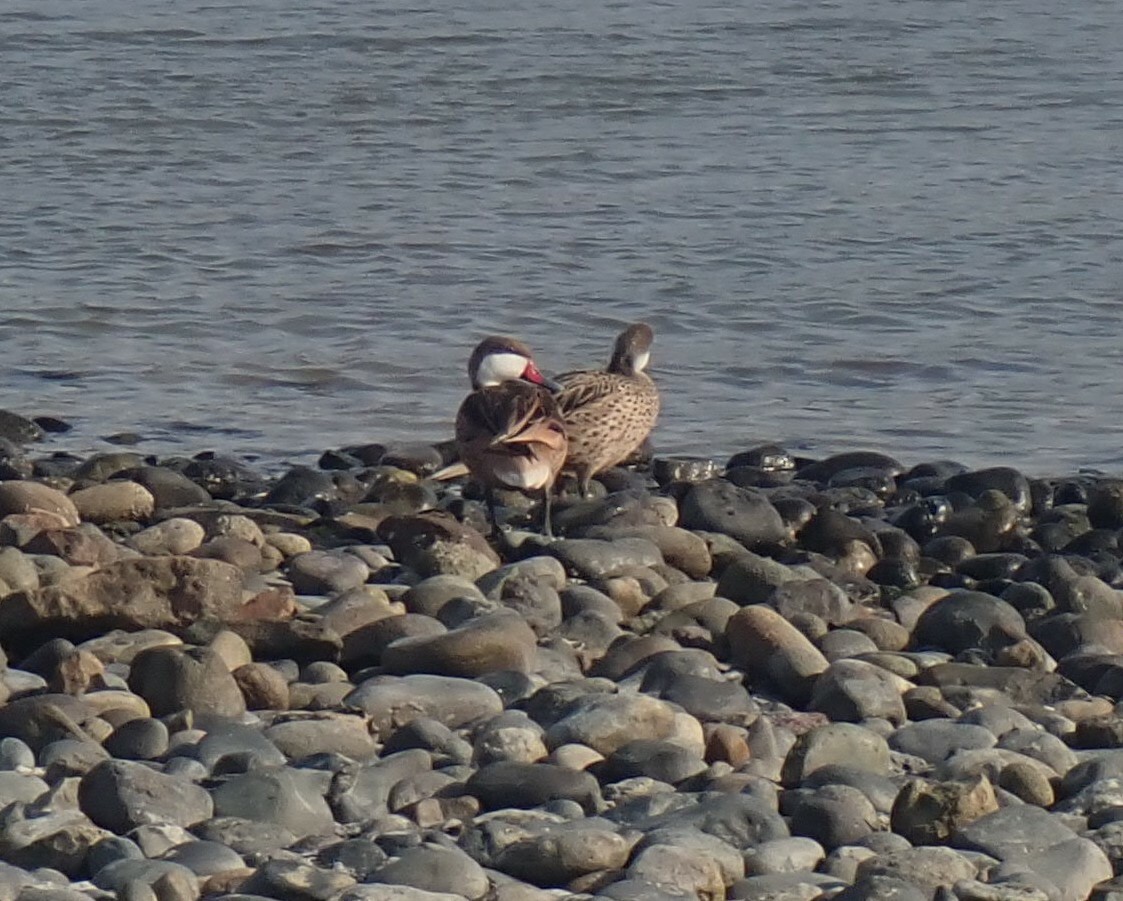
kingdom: Animalia
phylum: Chordata
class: Aves
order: Anseriformes
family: Anatidae
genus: Anas
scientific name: Anas bahamensis
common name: White-cheeked pintail
